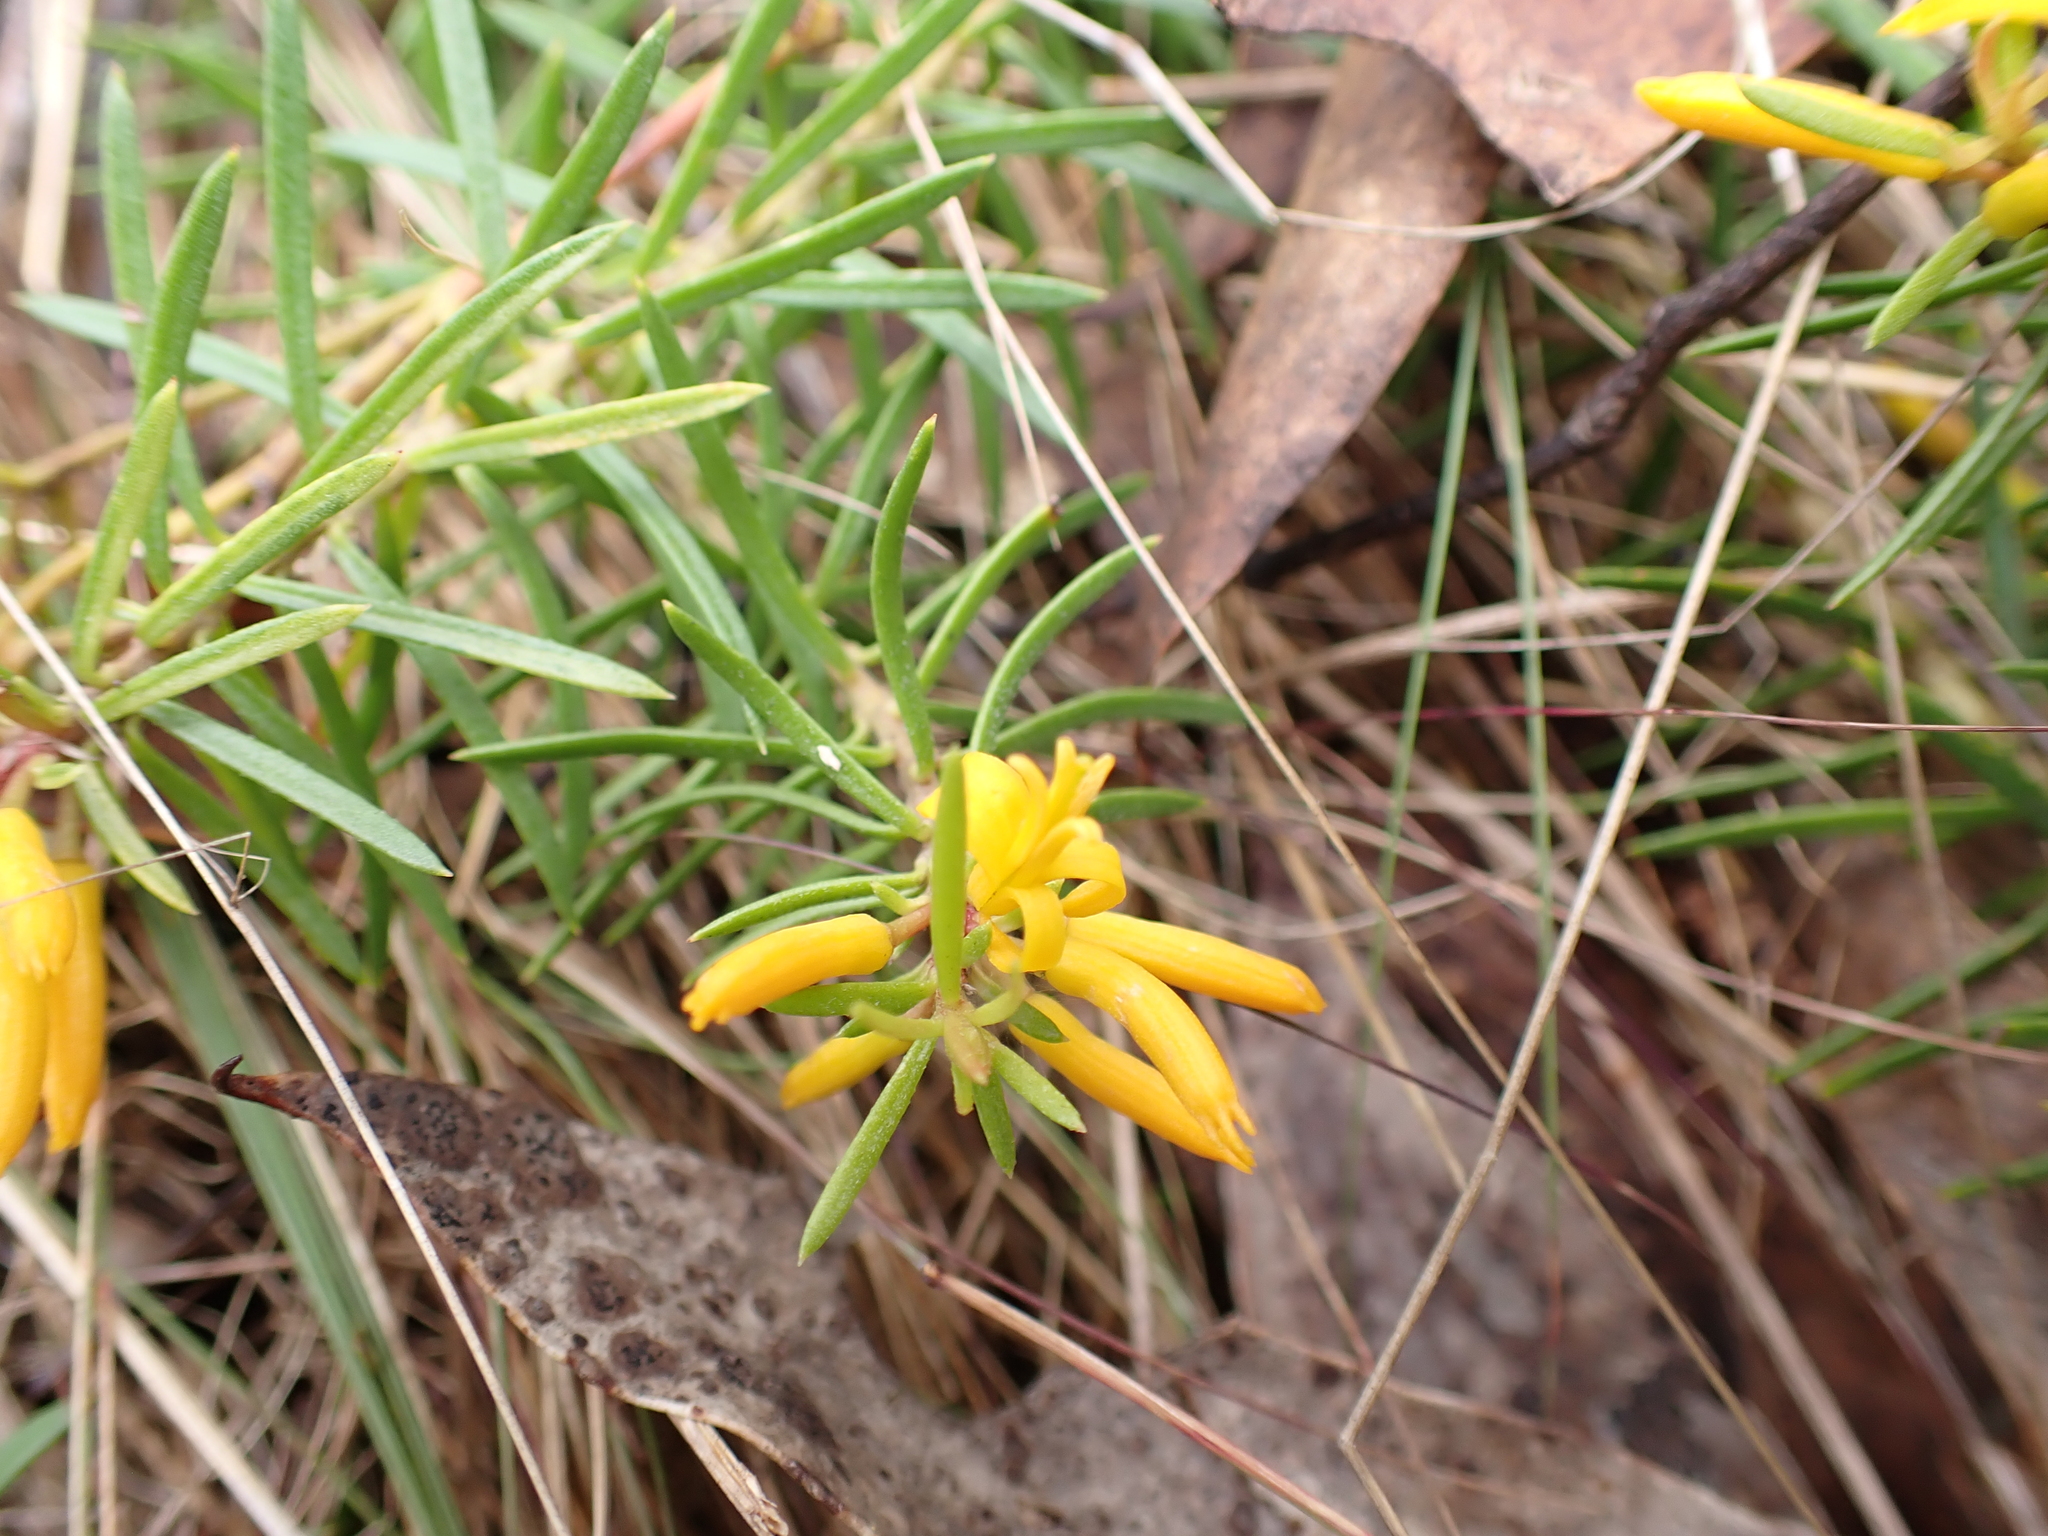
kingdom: Plantae
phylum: Tracheophyta
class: Magnoliopsida
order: Proteales
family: Proteaceae
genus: Persoonia
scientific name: Persoonia chamaepeuce
